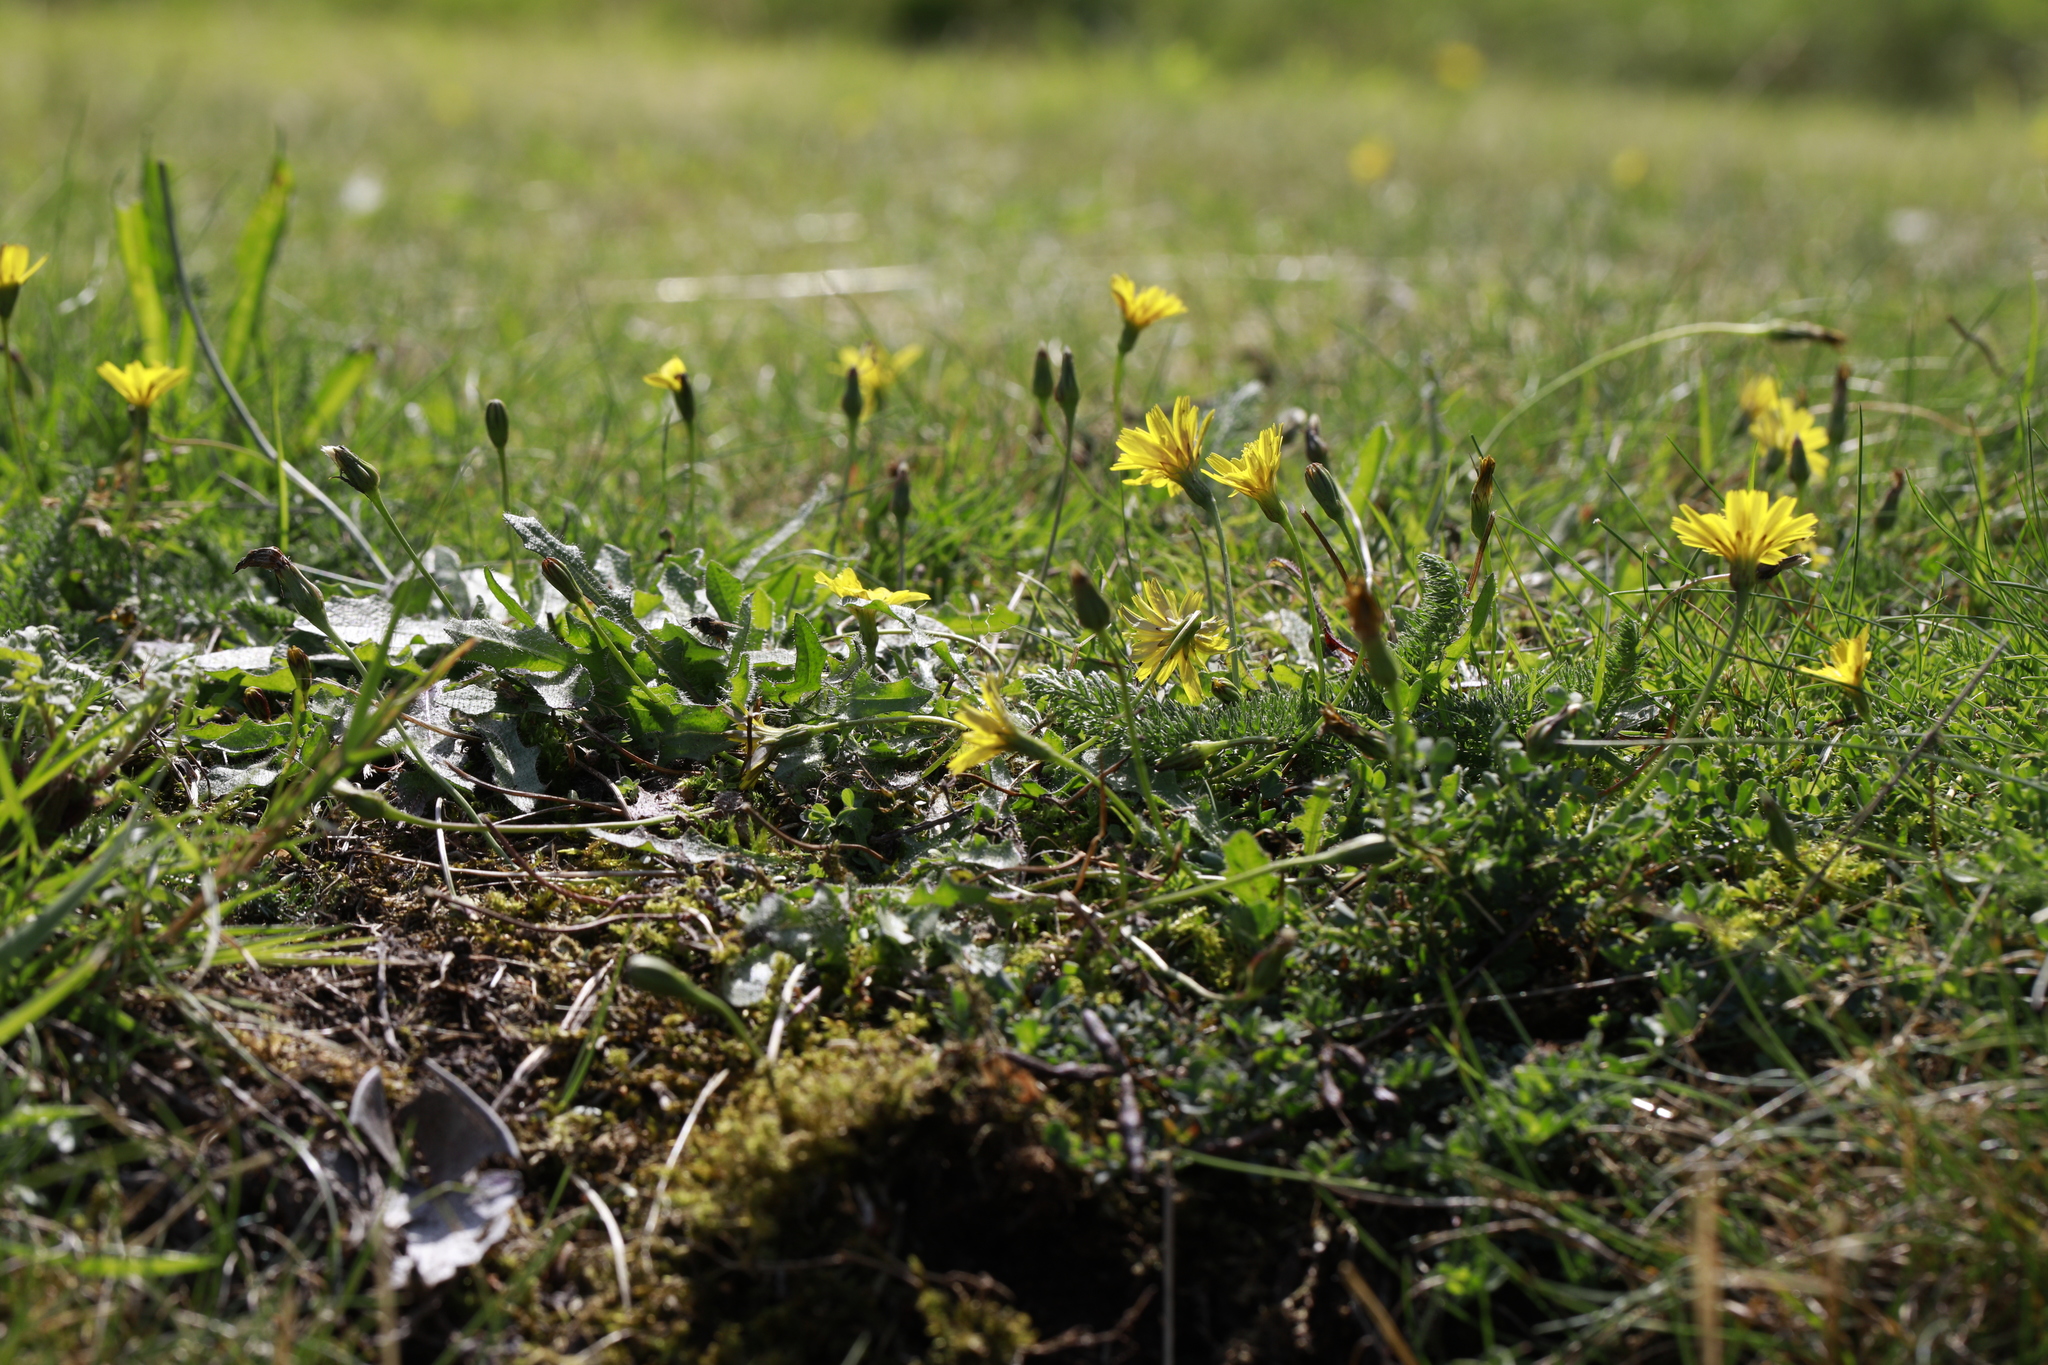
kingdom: Plantae
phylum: Tracheophyta
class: Magnoliopsida
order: Asterales
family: Asteraceae
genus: Scorzoneroides
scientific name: Scorzoneroides autumnalis
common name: Autumn hawkbit
